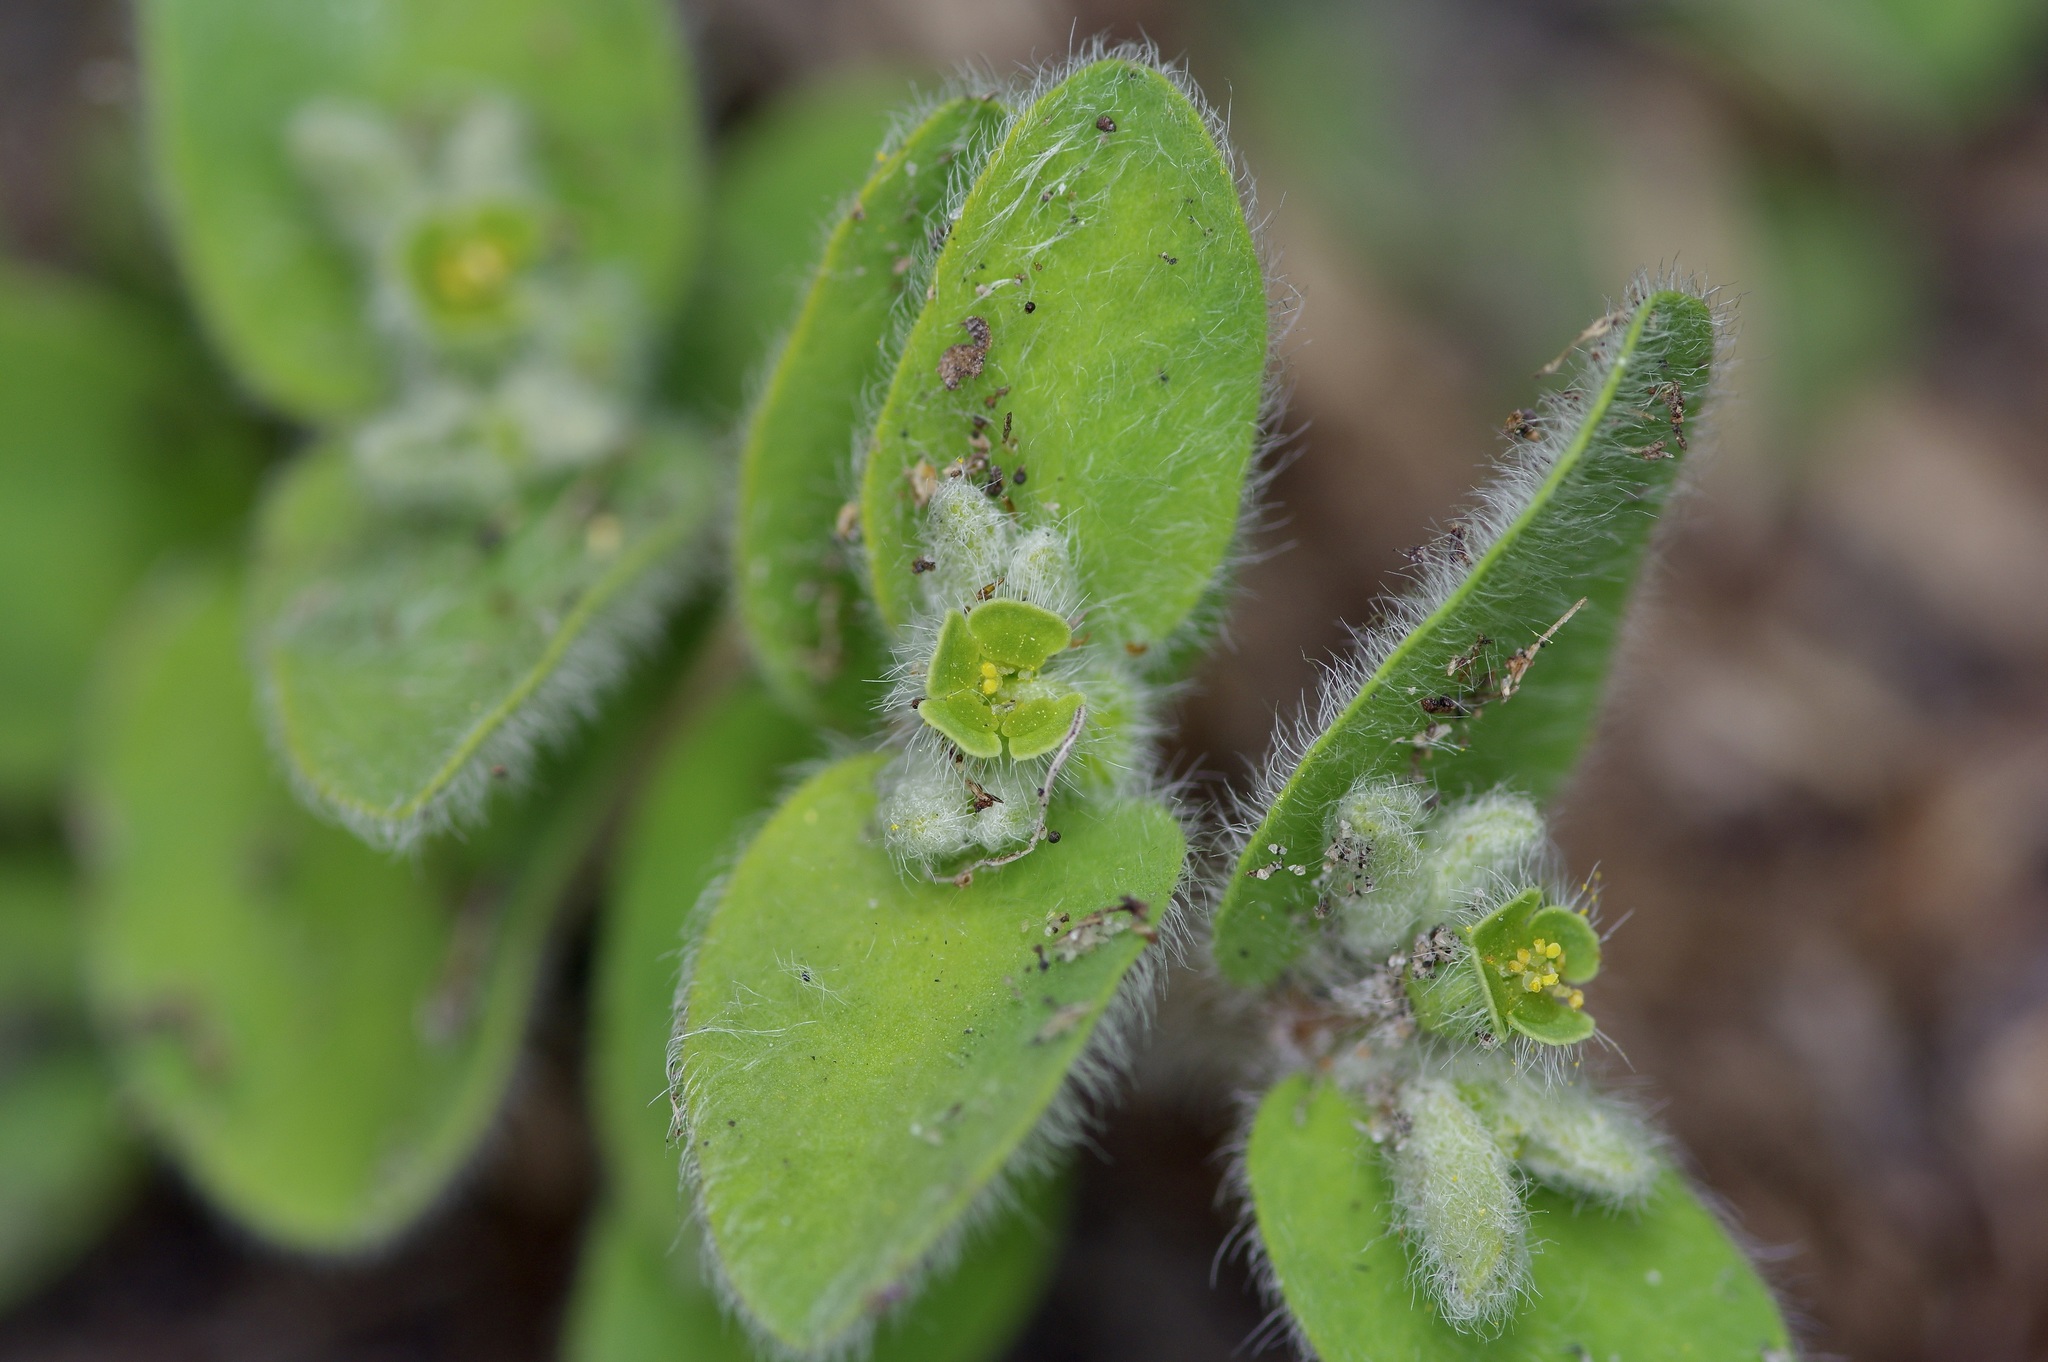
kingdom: Plantae
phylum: Tracheophyta
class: Magnoliopsida
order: Malpighiales
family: Euphorbiaceae
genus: Euphorbia
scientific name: Euphorbia innocua
